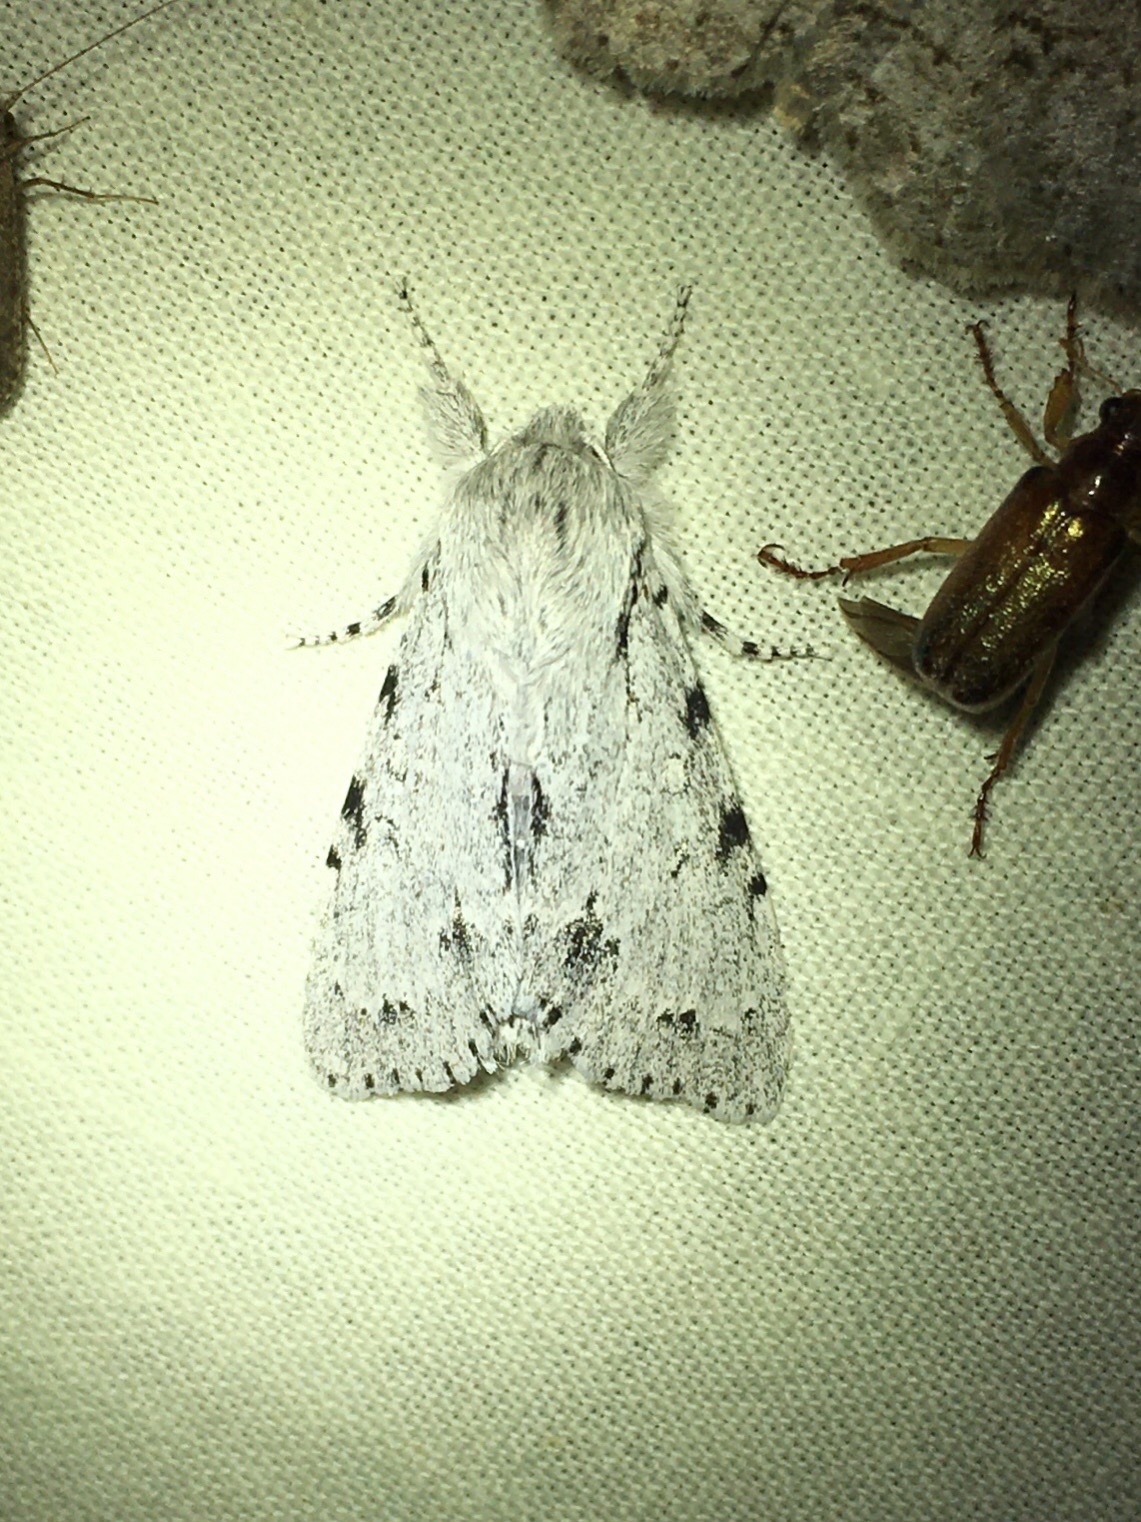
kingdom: Animalia
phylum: Arthropoda
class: Insecta
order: Lepidoptera
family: Noctuidae
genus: Acronicta
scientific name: Acronicta lepusculina
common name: Cottonwood dagger
